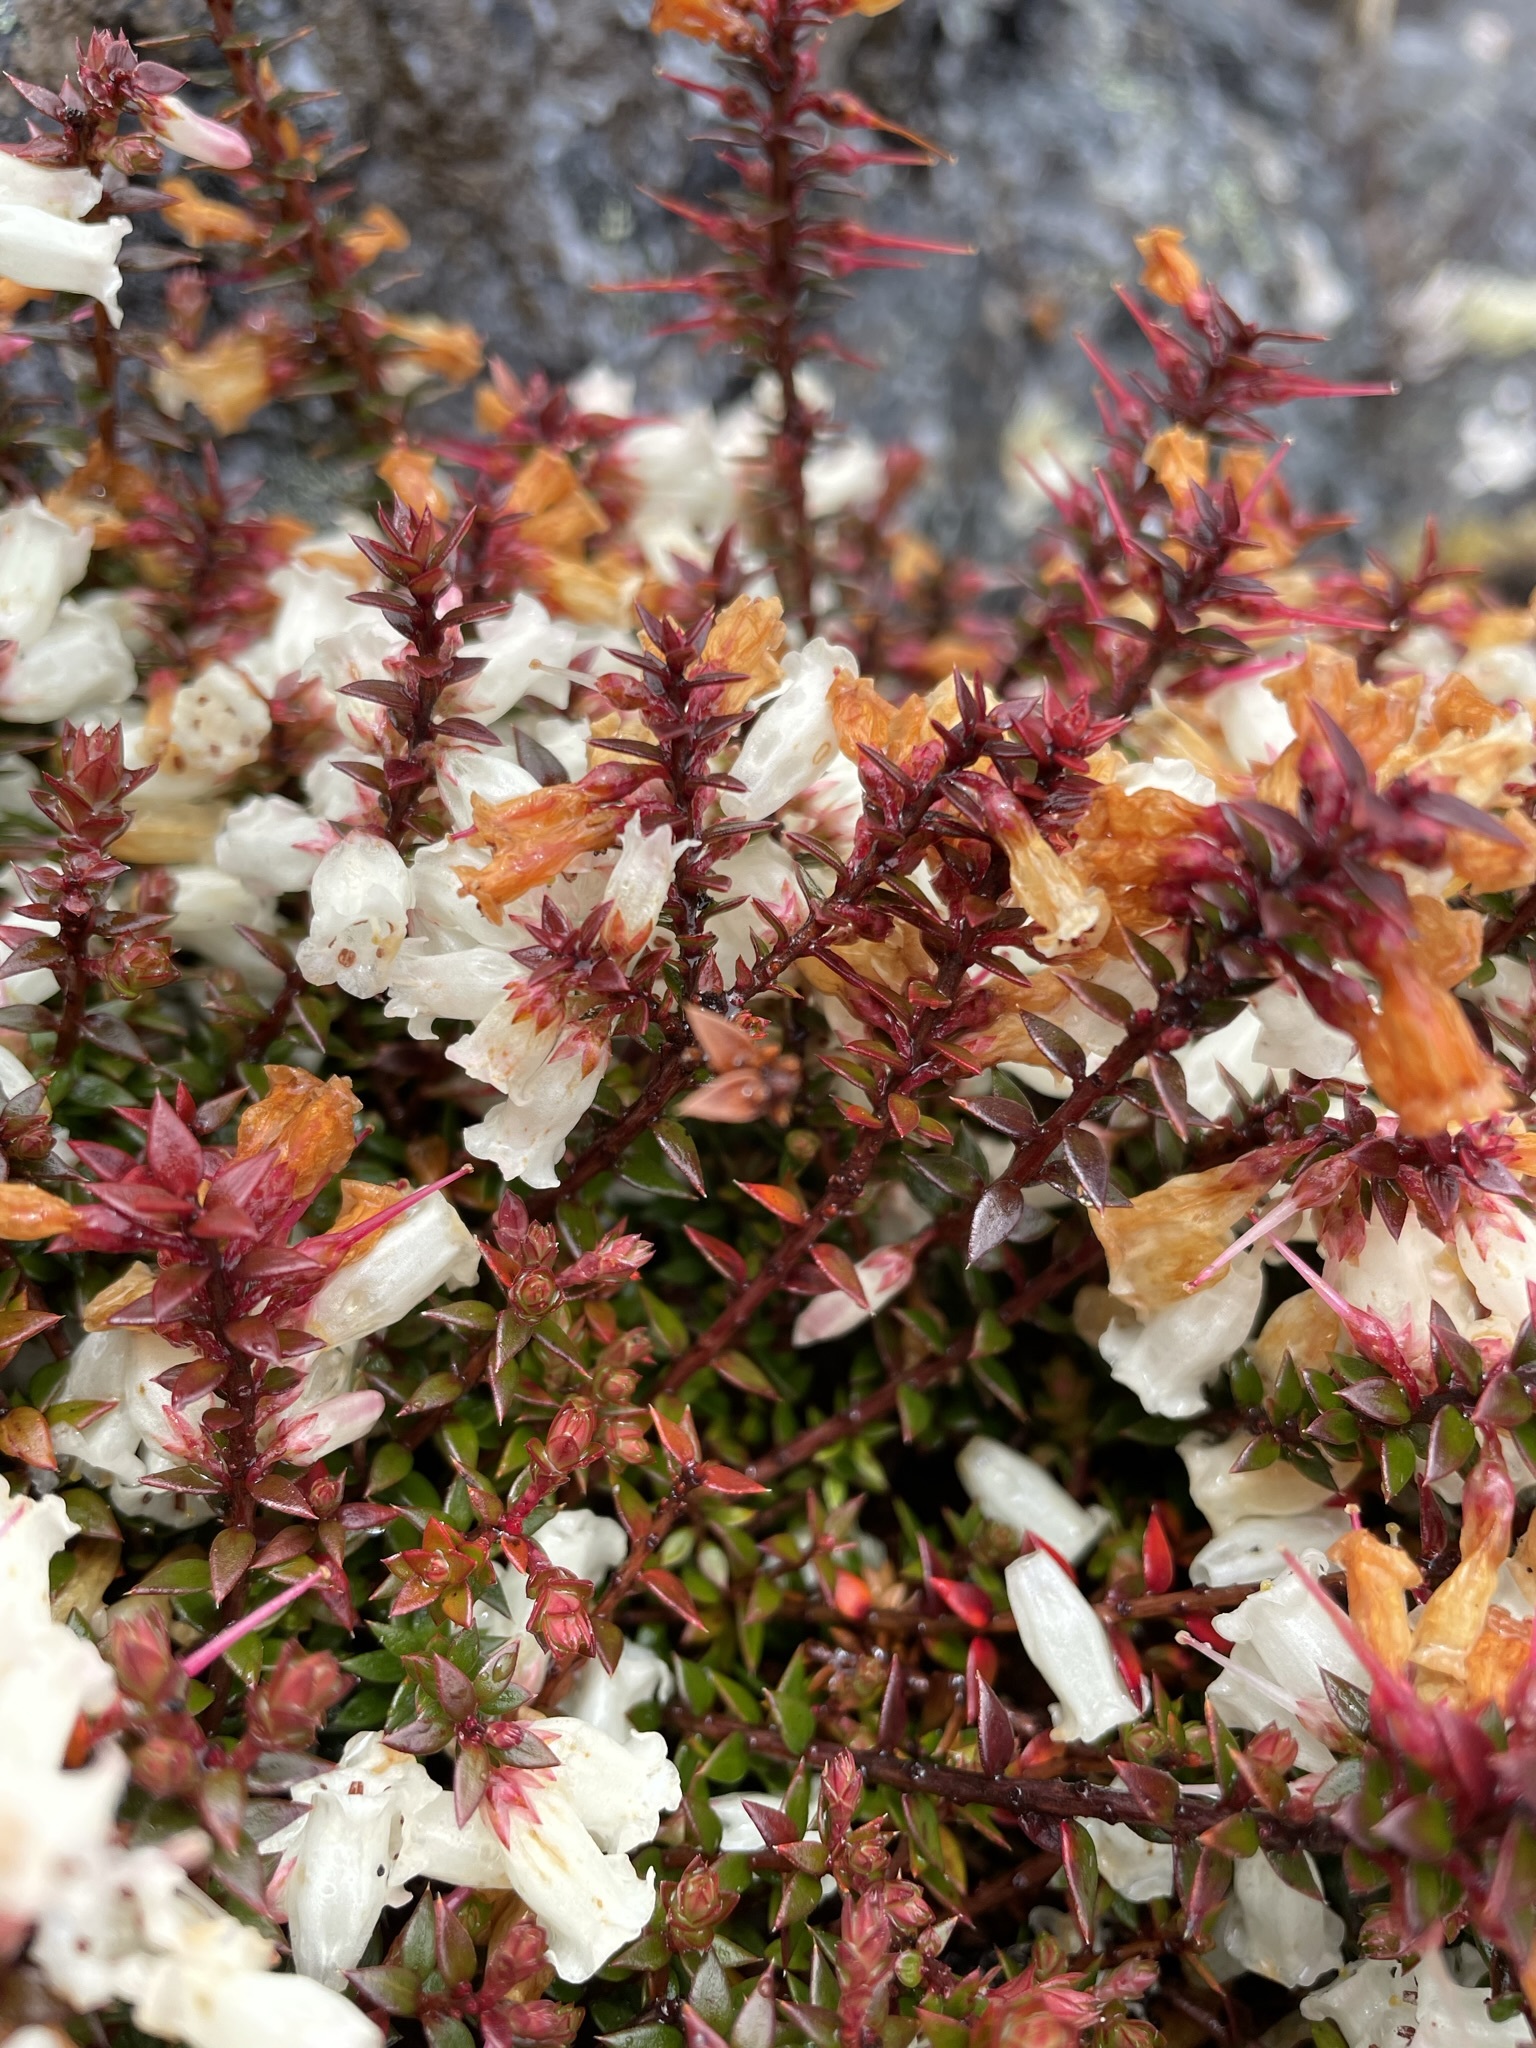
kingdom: Plantae
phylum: Tracheophyta
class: Magnoliopsida
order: Ericales
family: Ericaceae
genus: Epacris
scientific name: Epacris impressa
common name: Common-heath
